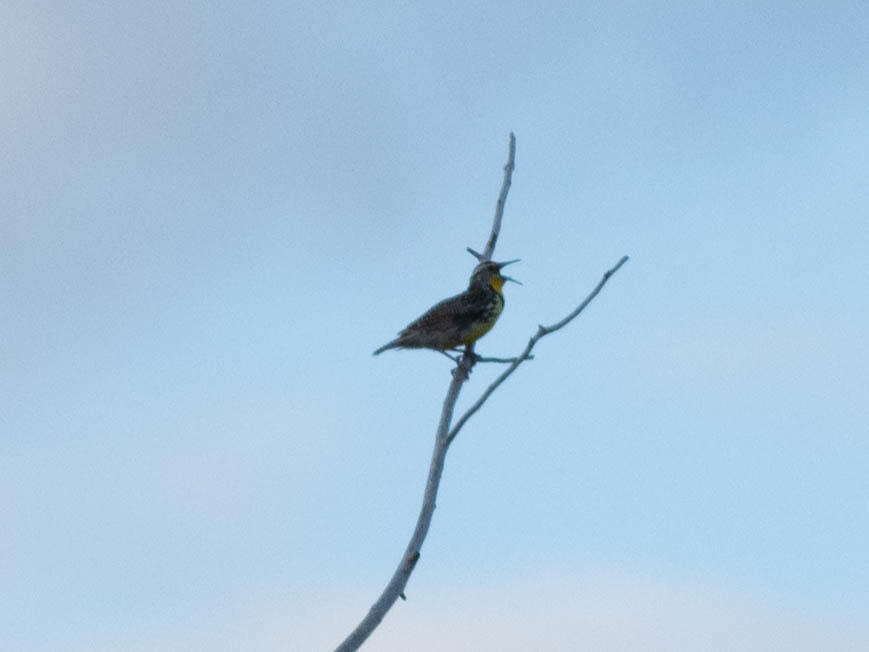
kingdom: Animalia
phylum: Chordata
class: Aves
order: Passeriformes
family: Icteridae
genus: Sturnella
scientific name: Sturnella neglecta
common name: Western meadowlark
